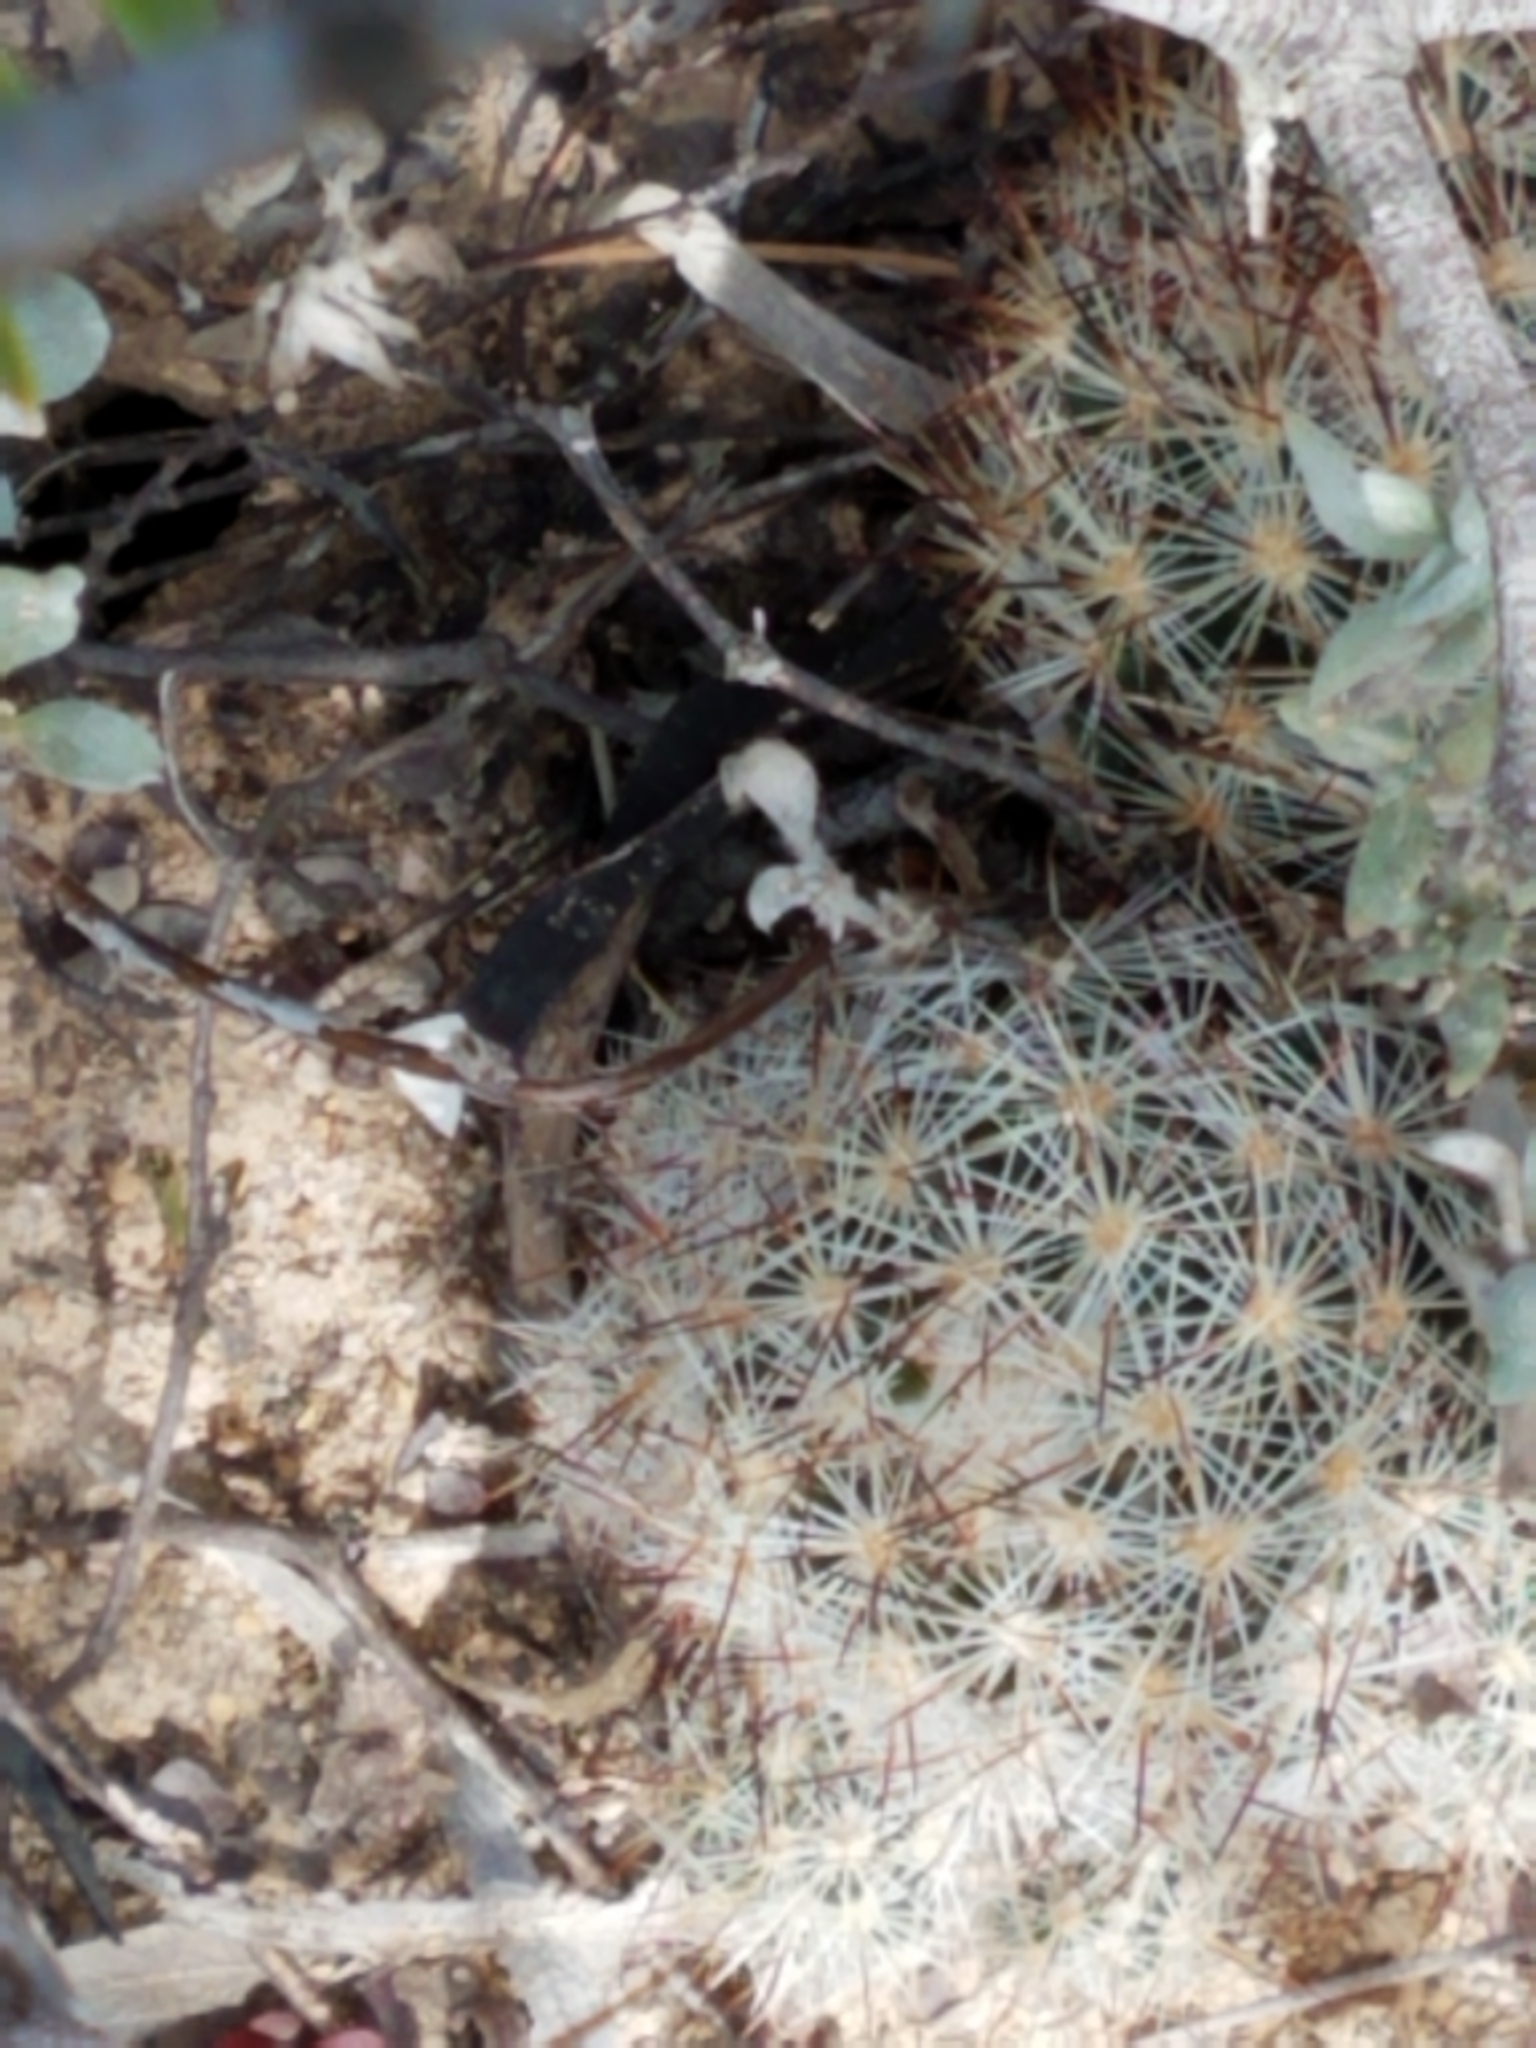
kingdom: Plantae
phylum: Tracheophyta
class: Magnoliopsida
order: Caryophyllales
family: Cactaceae
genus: Pelecyphora
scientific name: Pelecyphora emskoetteriana
